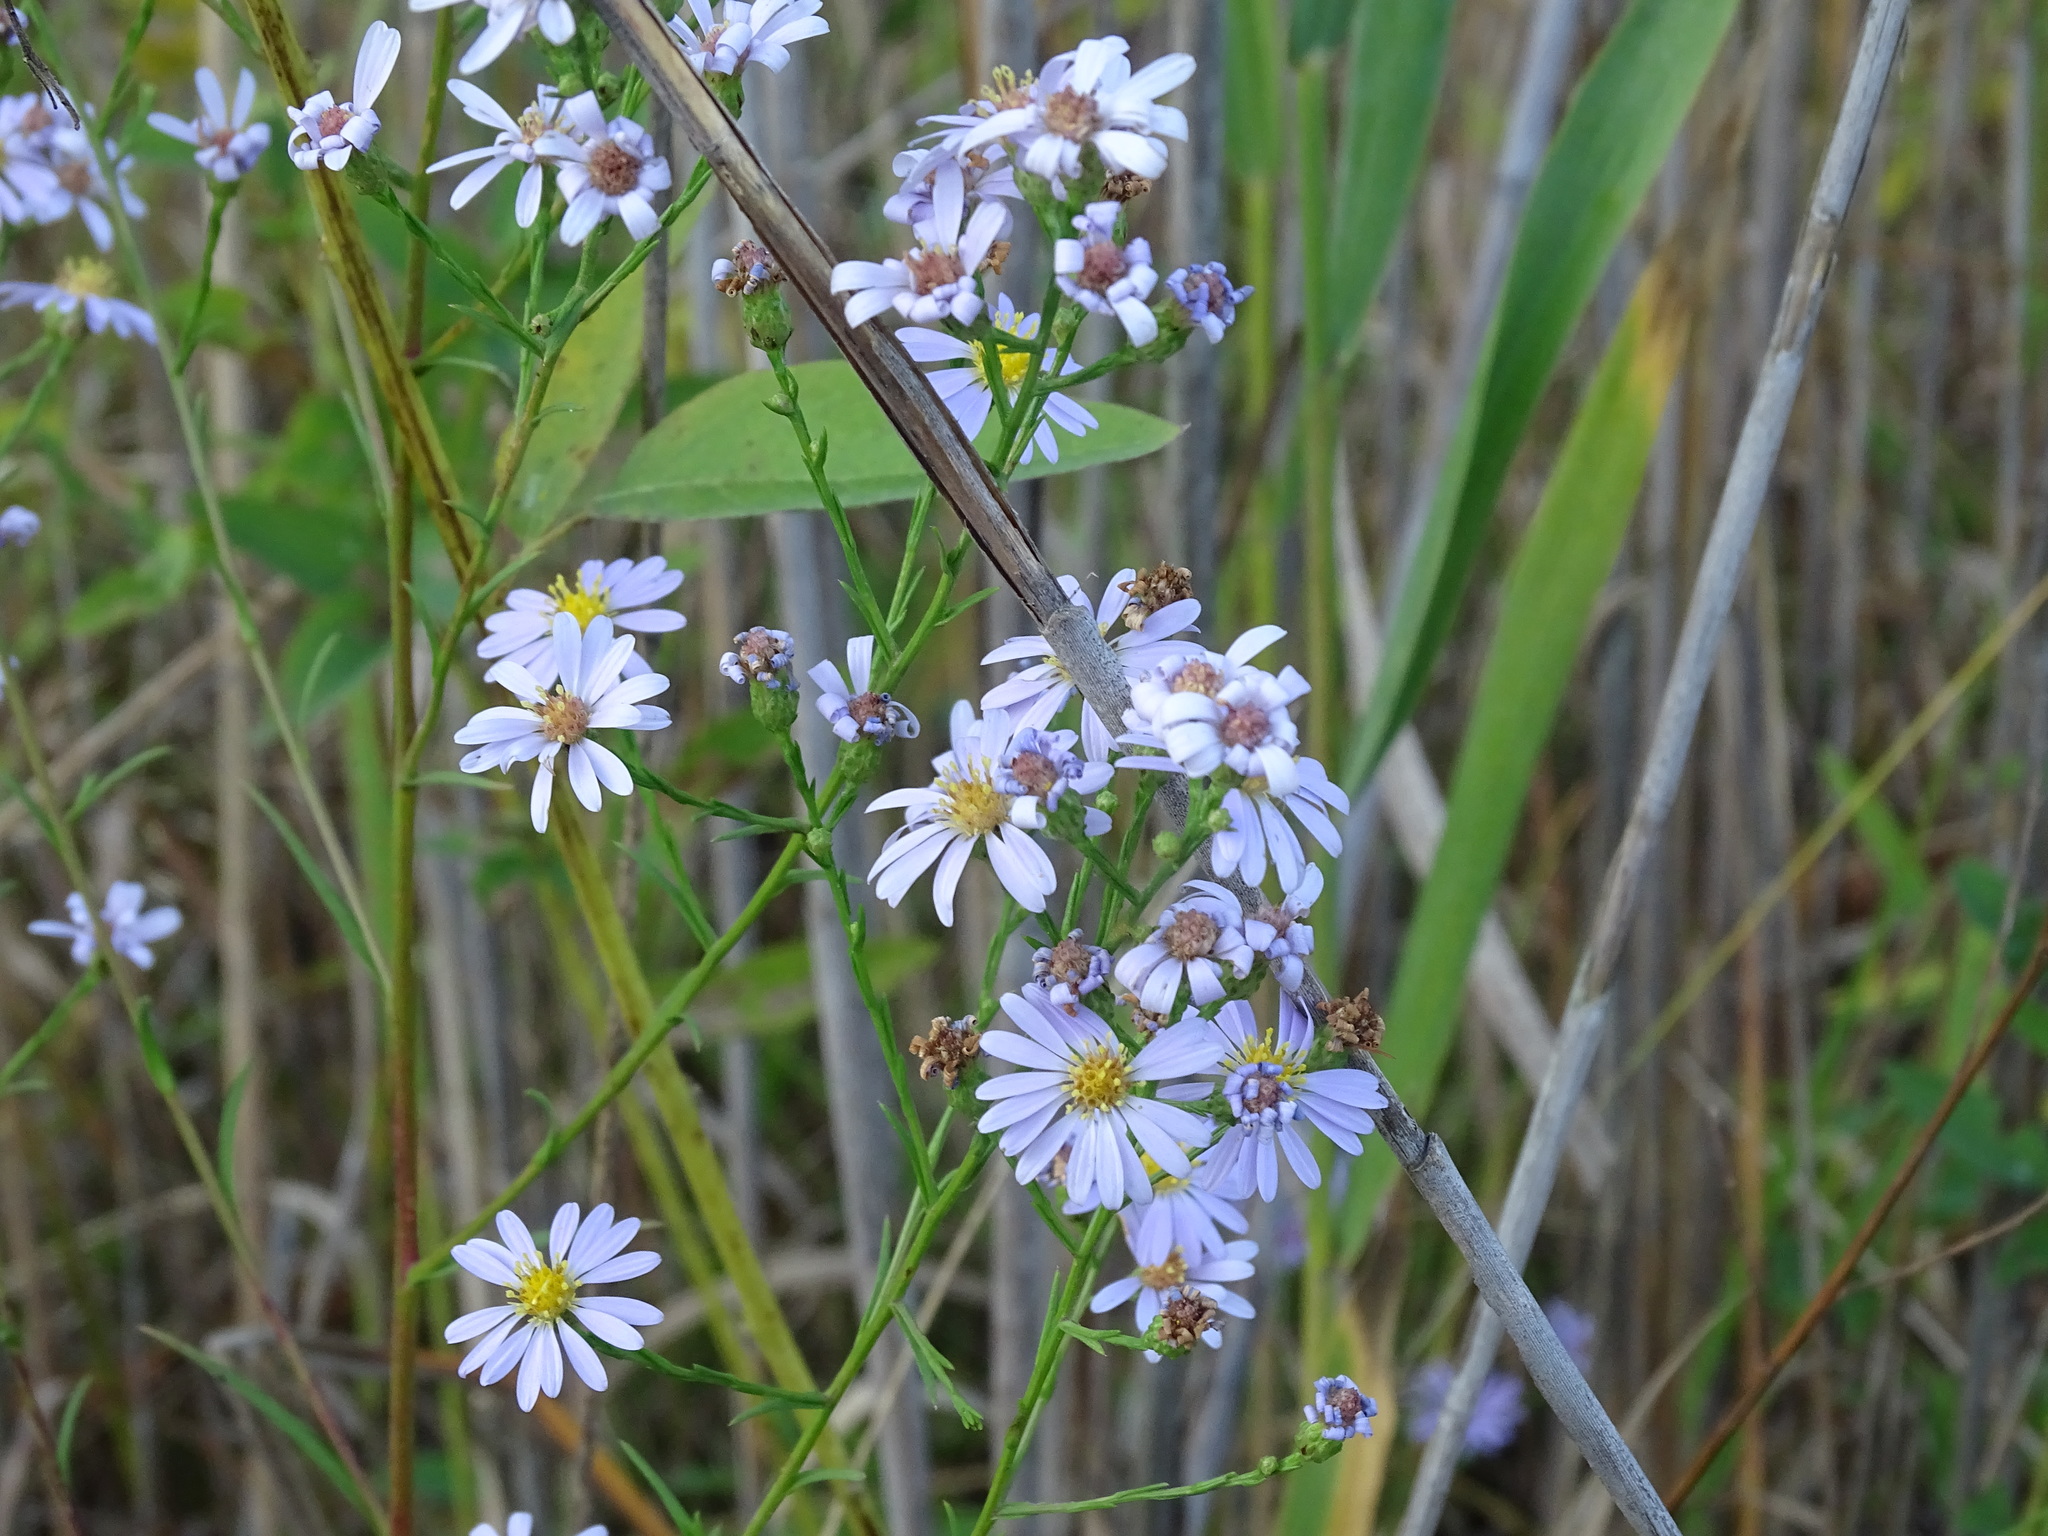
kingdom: Plantae
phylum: Tracheophyta
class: Magnoliopsida
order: Asterales
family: Asteraceae
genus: Symphyotrichum
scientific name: Symphyotrichum oolentangiense
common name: Azure aster
